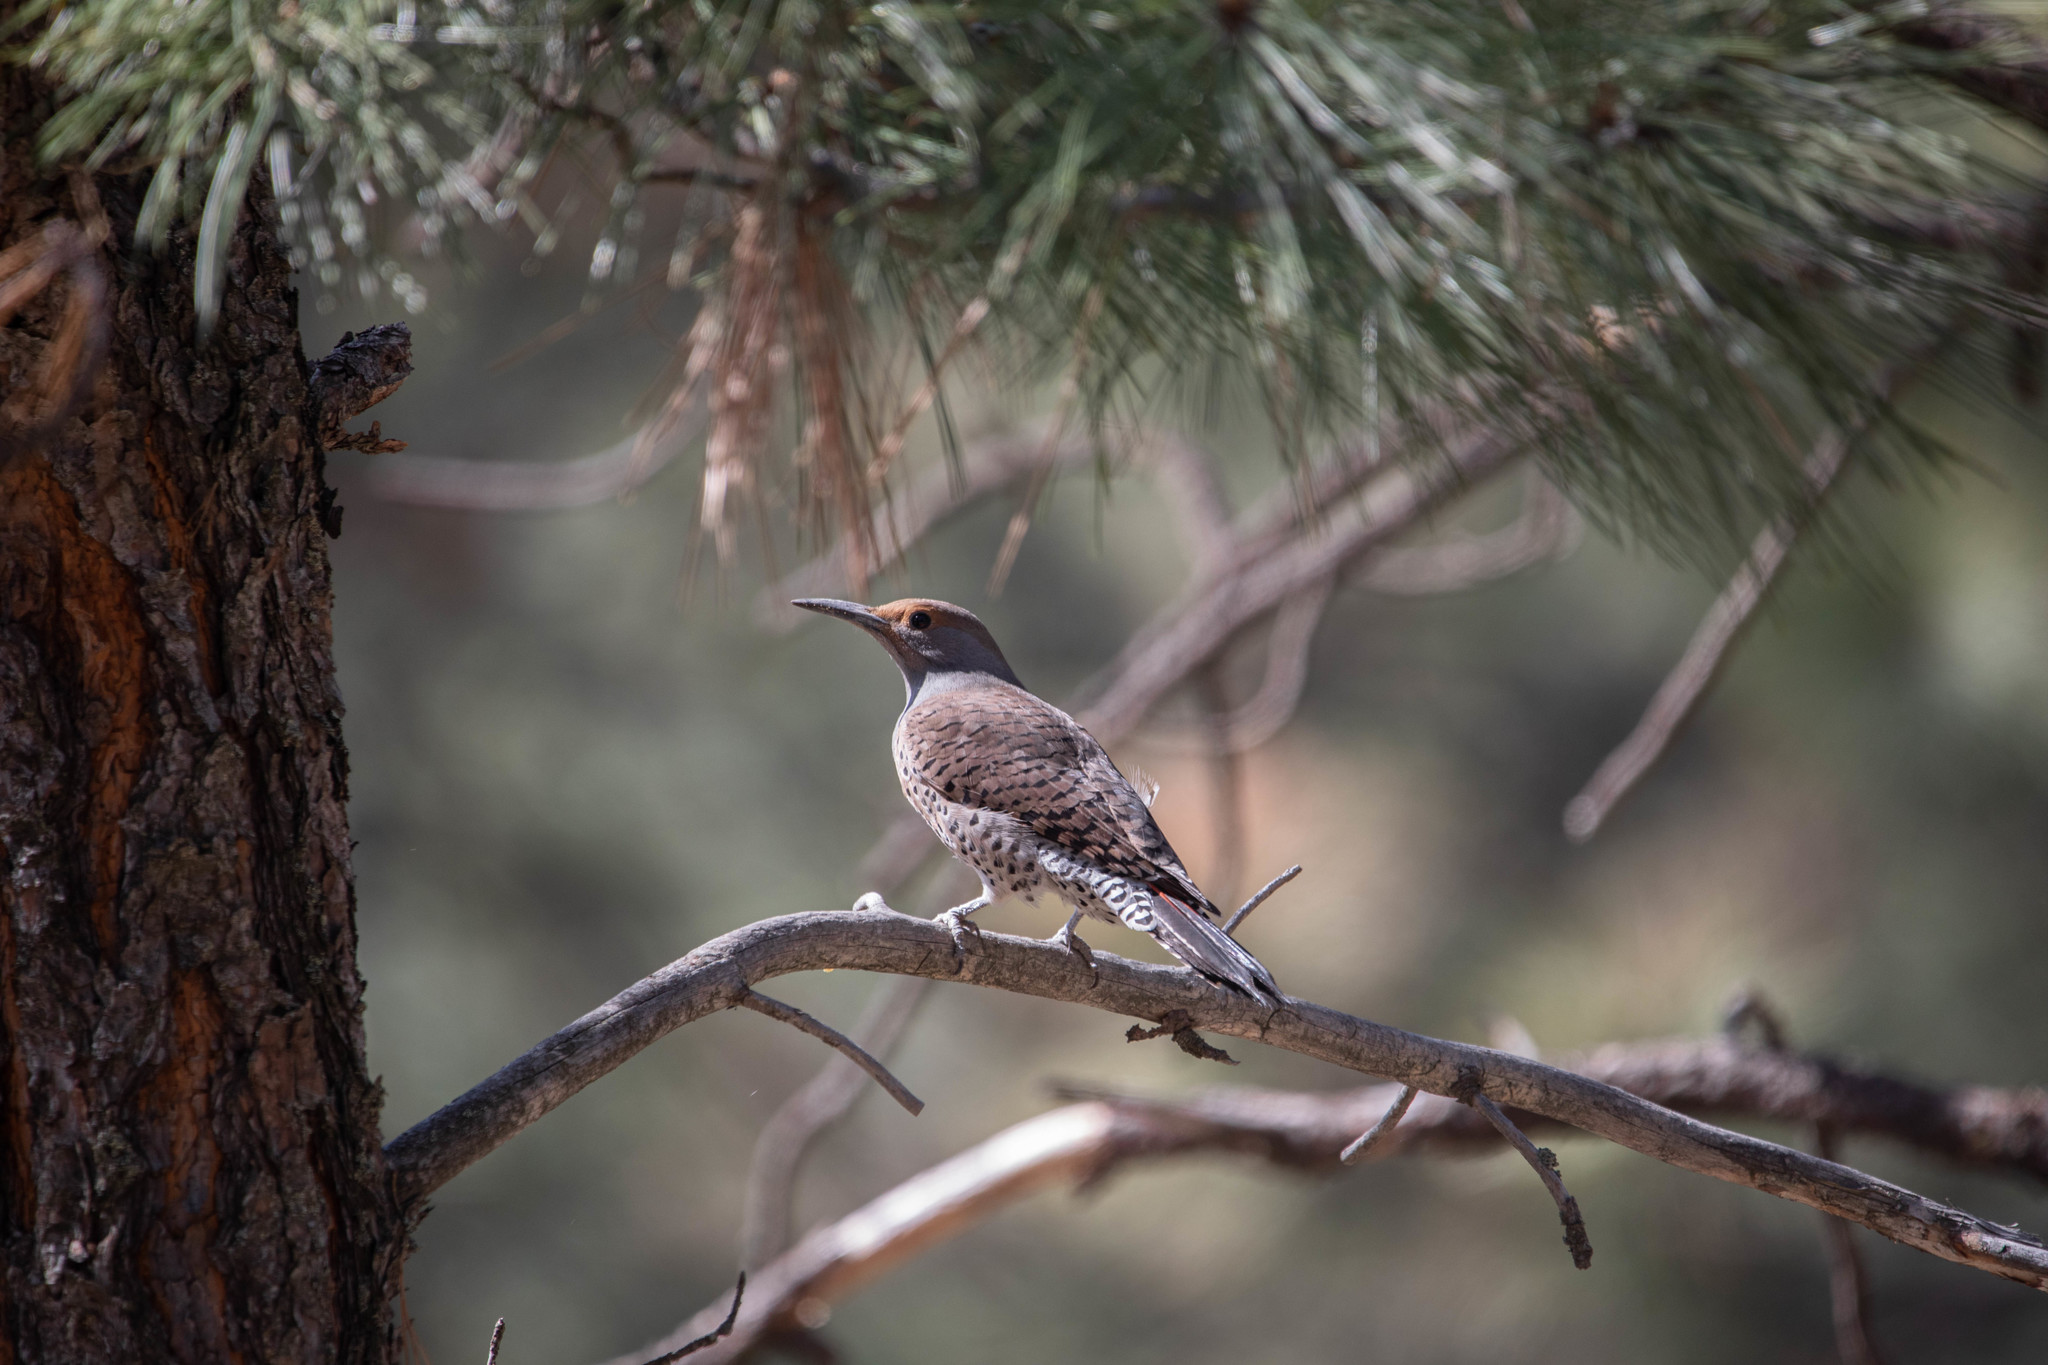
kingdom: Animalia
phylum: Chordata
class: Aves
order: Piciformes
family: Picidae
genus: Colaptes
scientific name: Colaptes auratus
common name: Northern flicker
